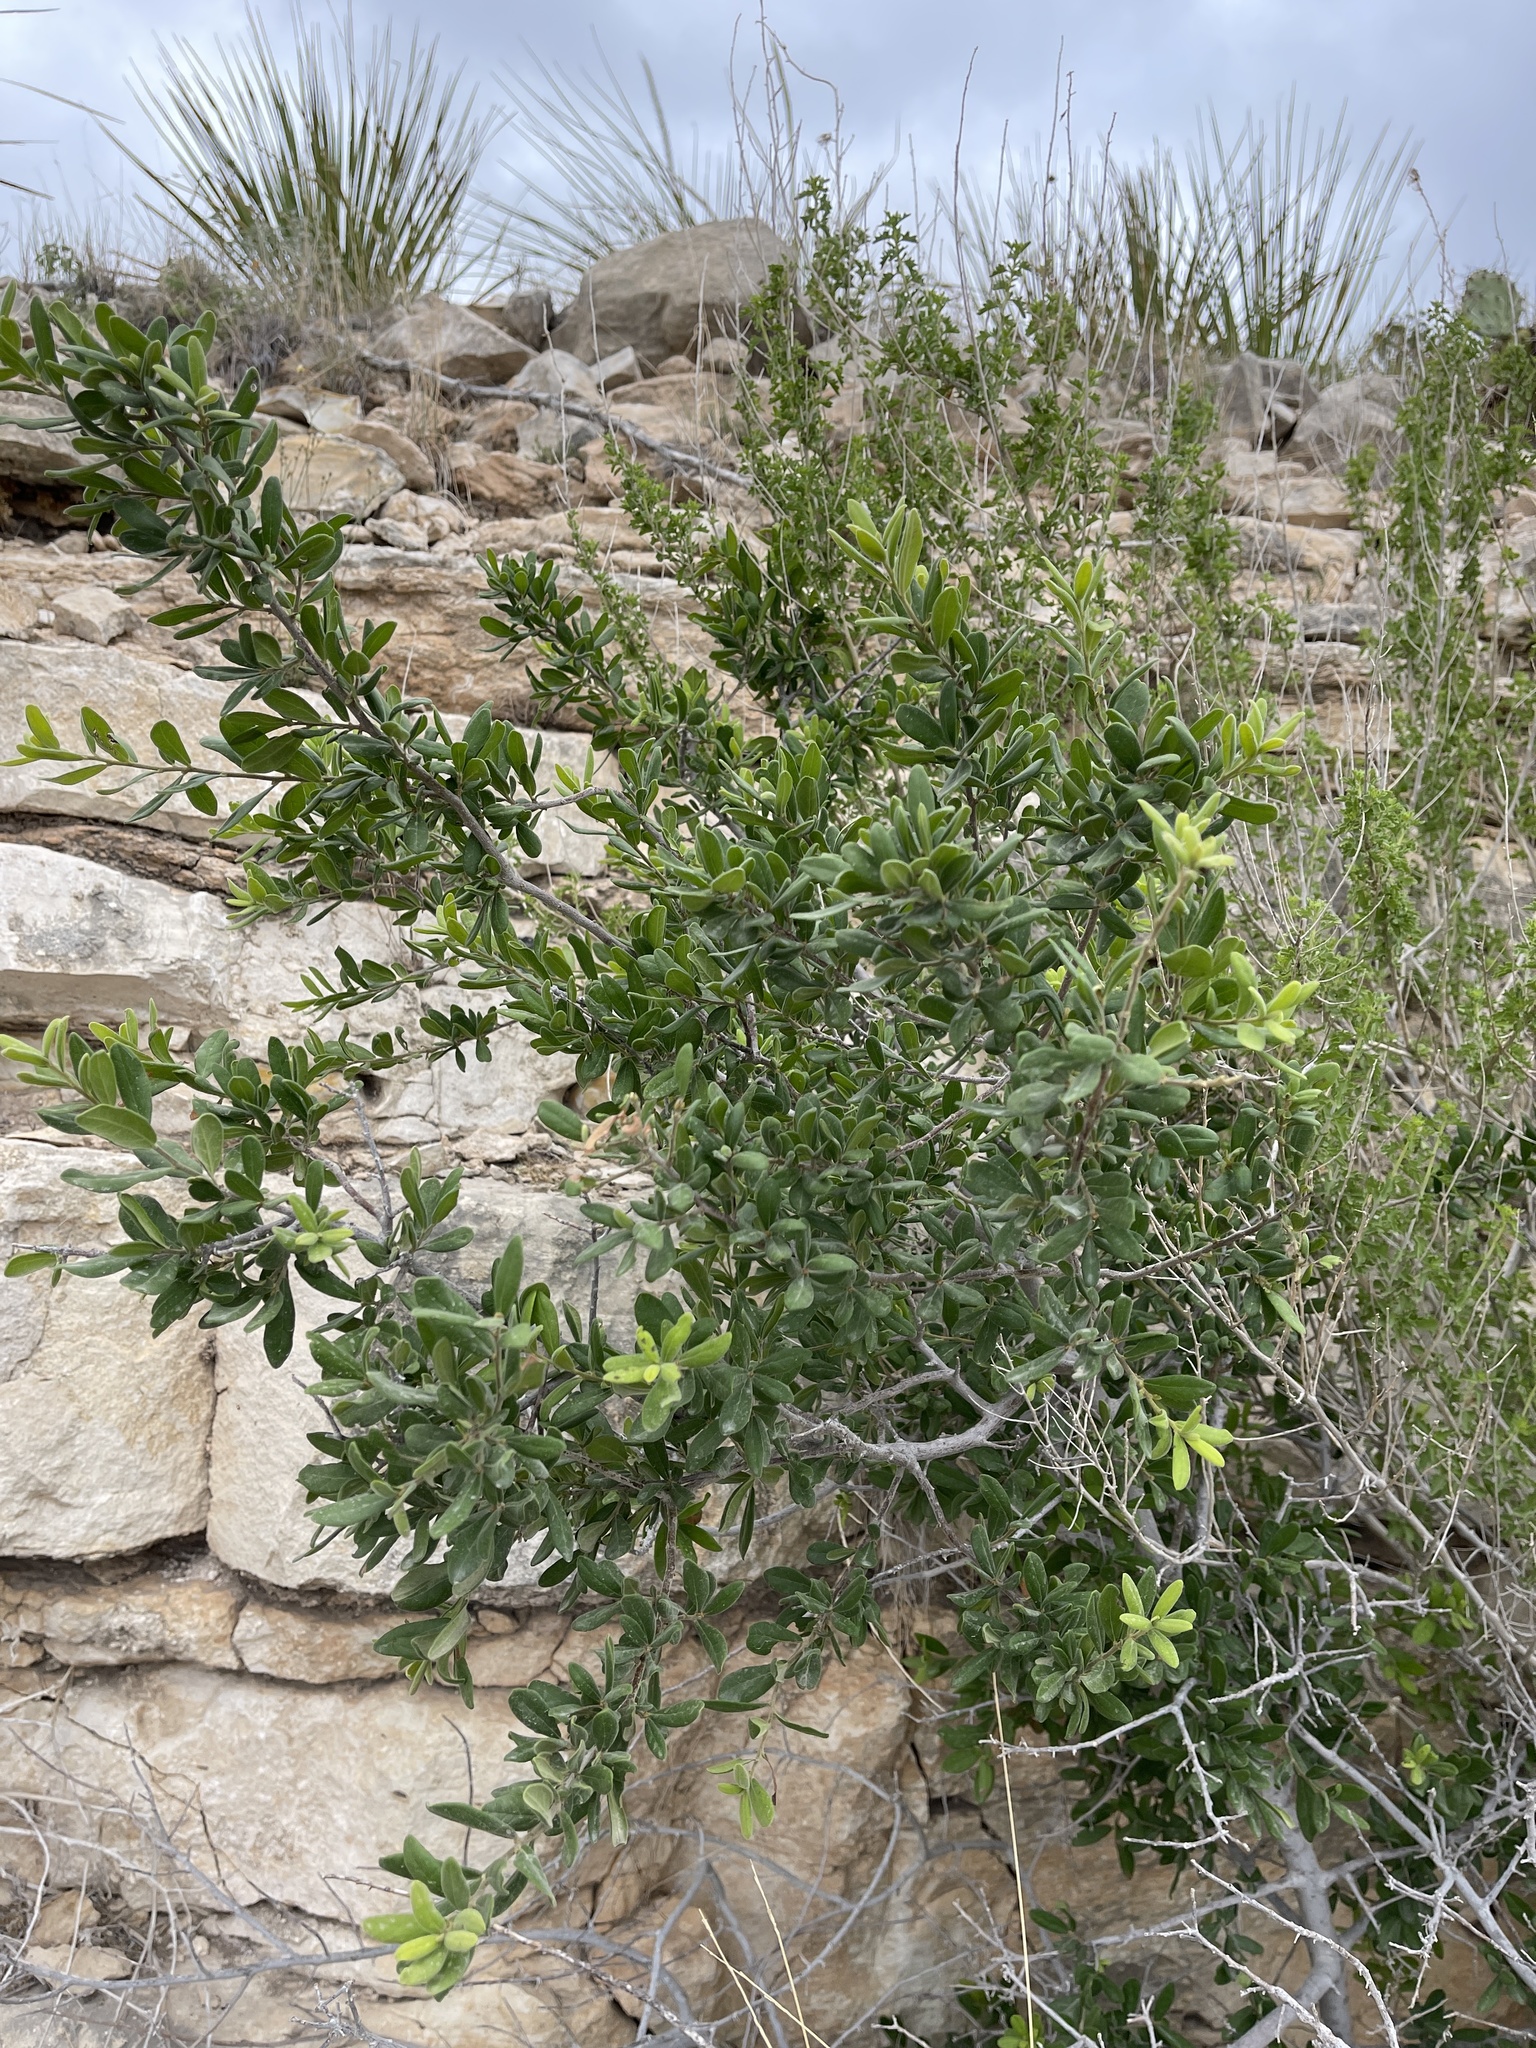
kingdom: Plantae
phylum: Tracheophyta
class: Magnoliopsida
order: Ericales
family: Ebenaceae
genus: Diospyros
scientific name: Diospyros texana
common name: Texas persimmon
